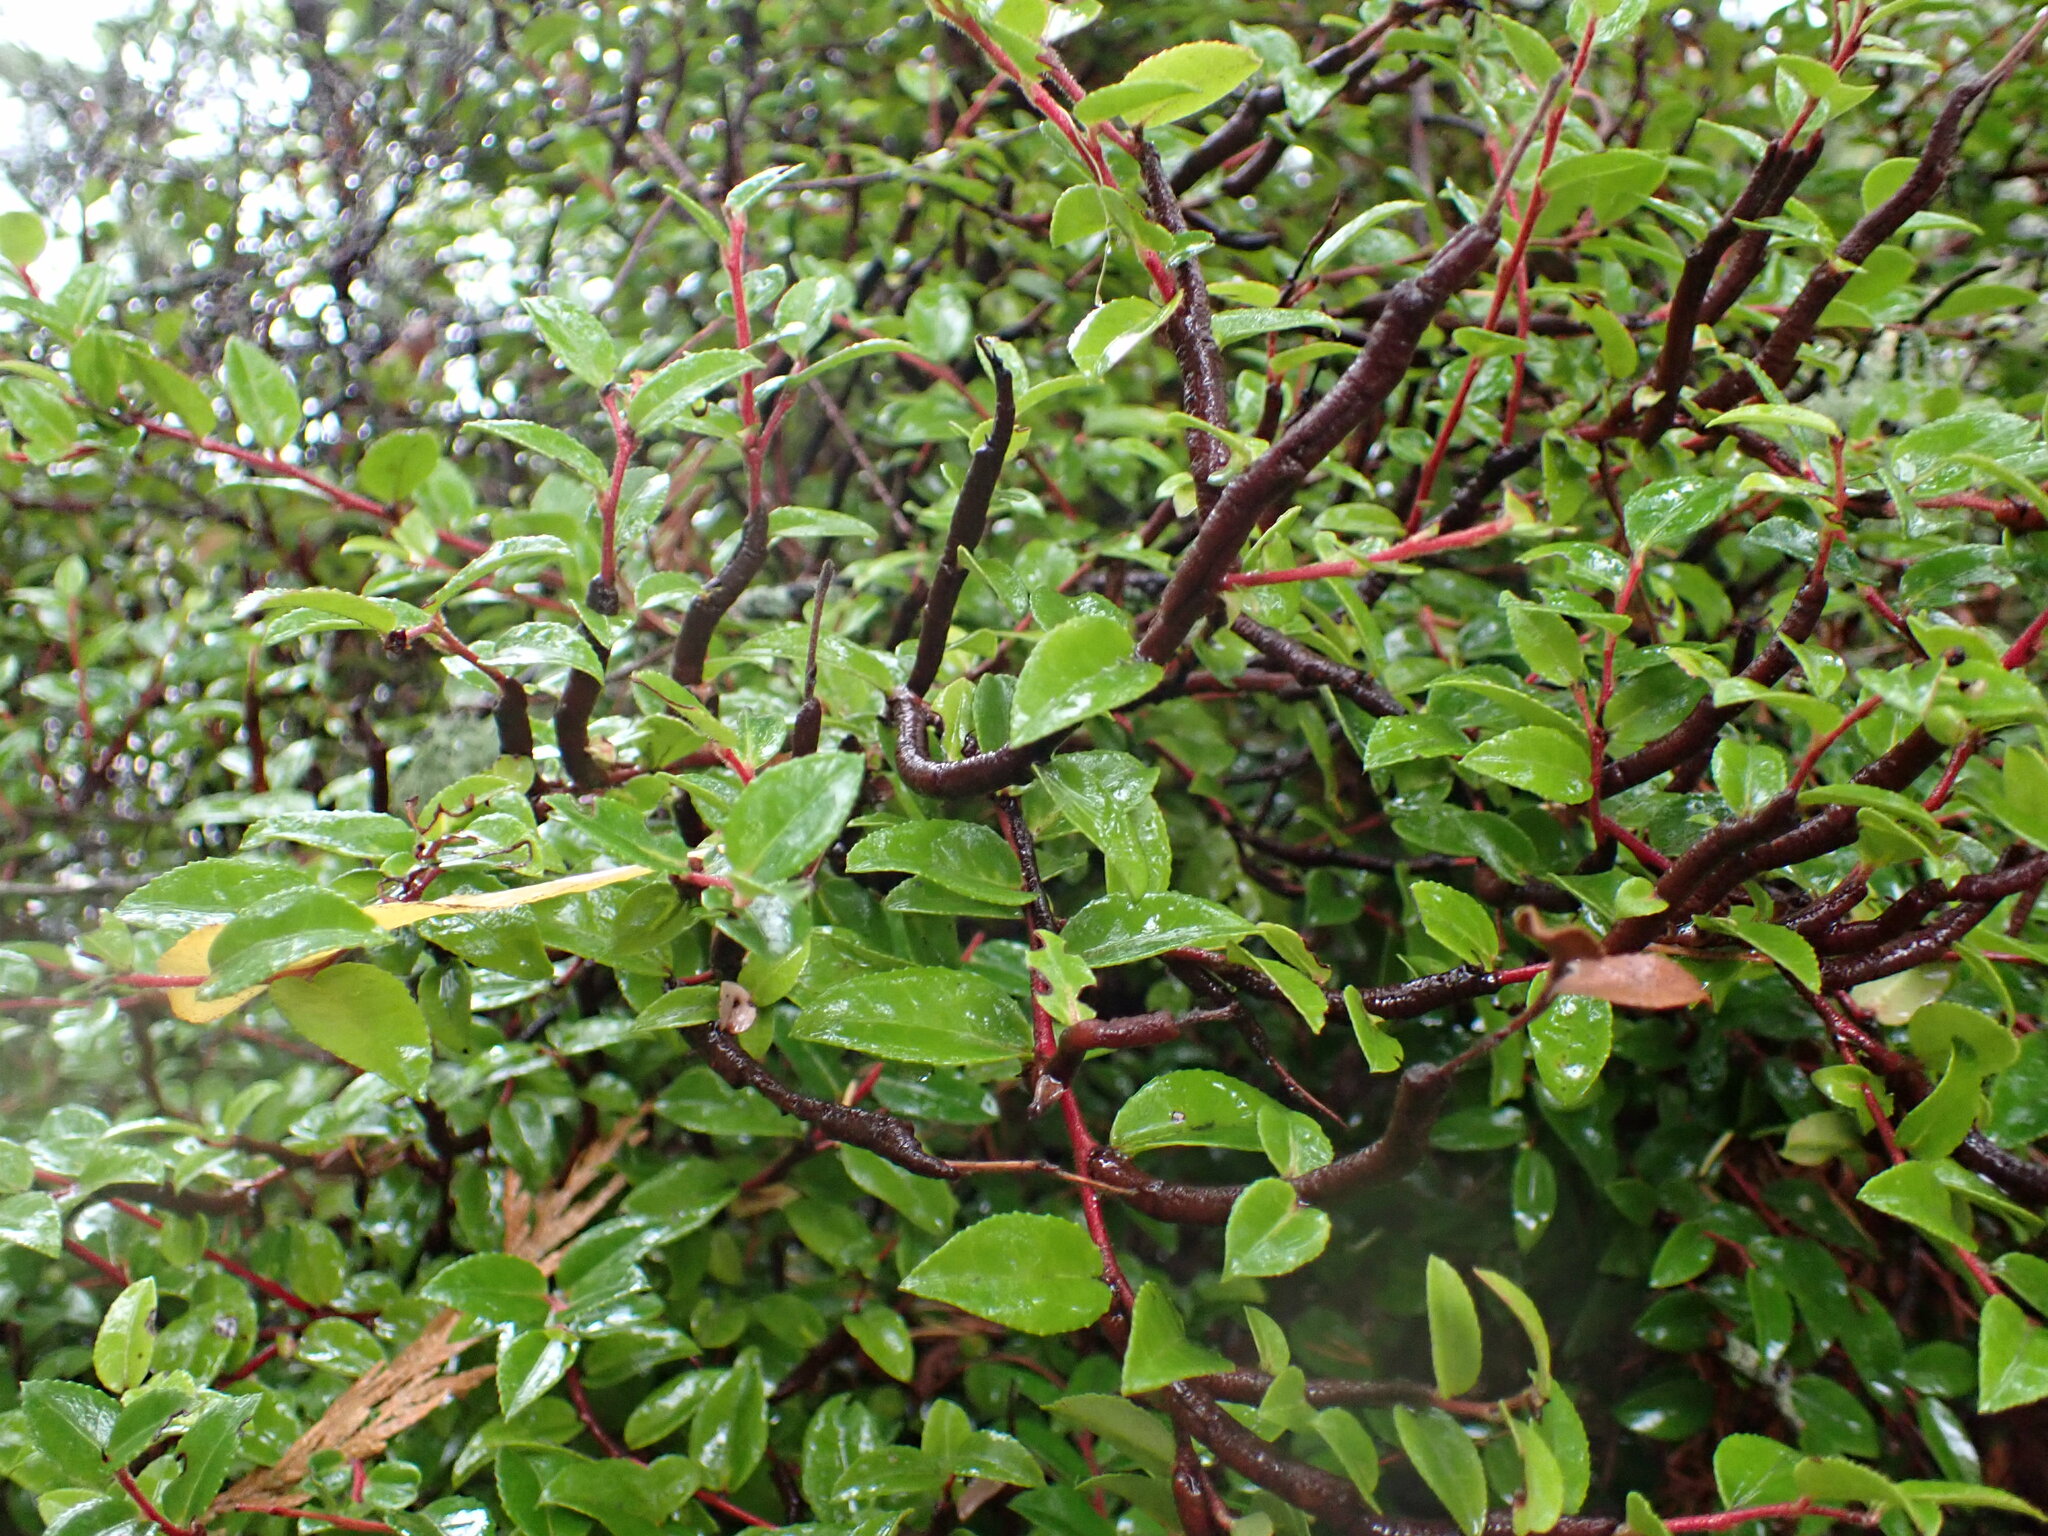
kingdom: Plantae
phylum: Tracheophyta
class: Magnoliopsida
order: Ericales
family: Ericaceae
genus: Vaccinium
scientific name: Vaccinium ovatum
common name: California-huckleberry
